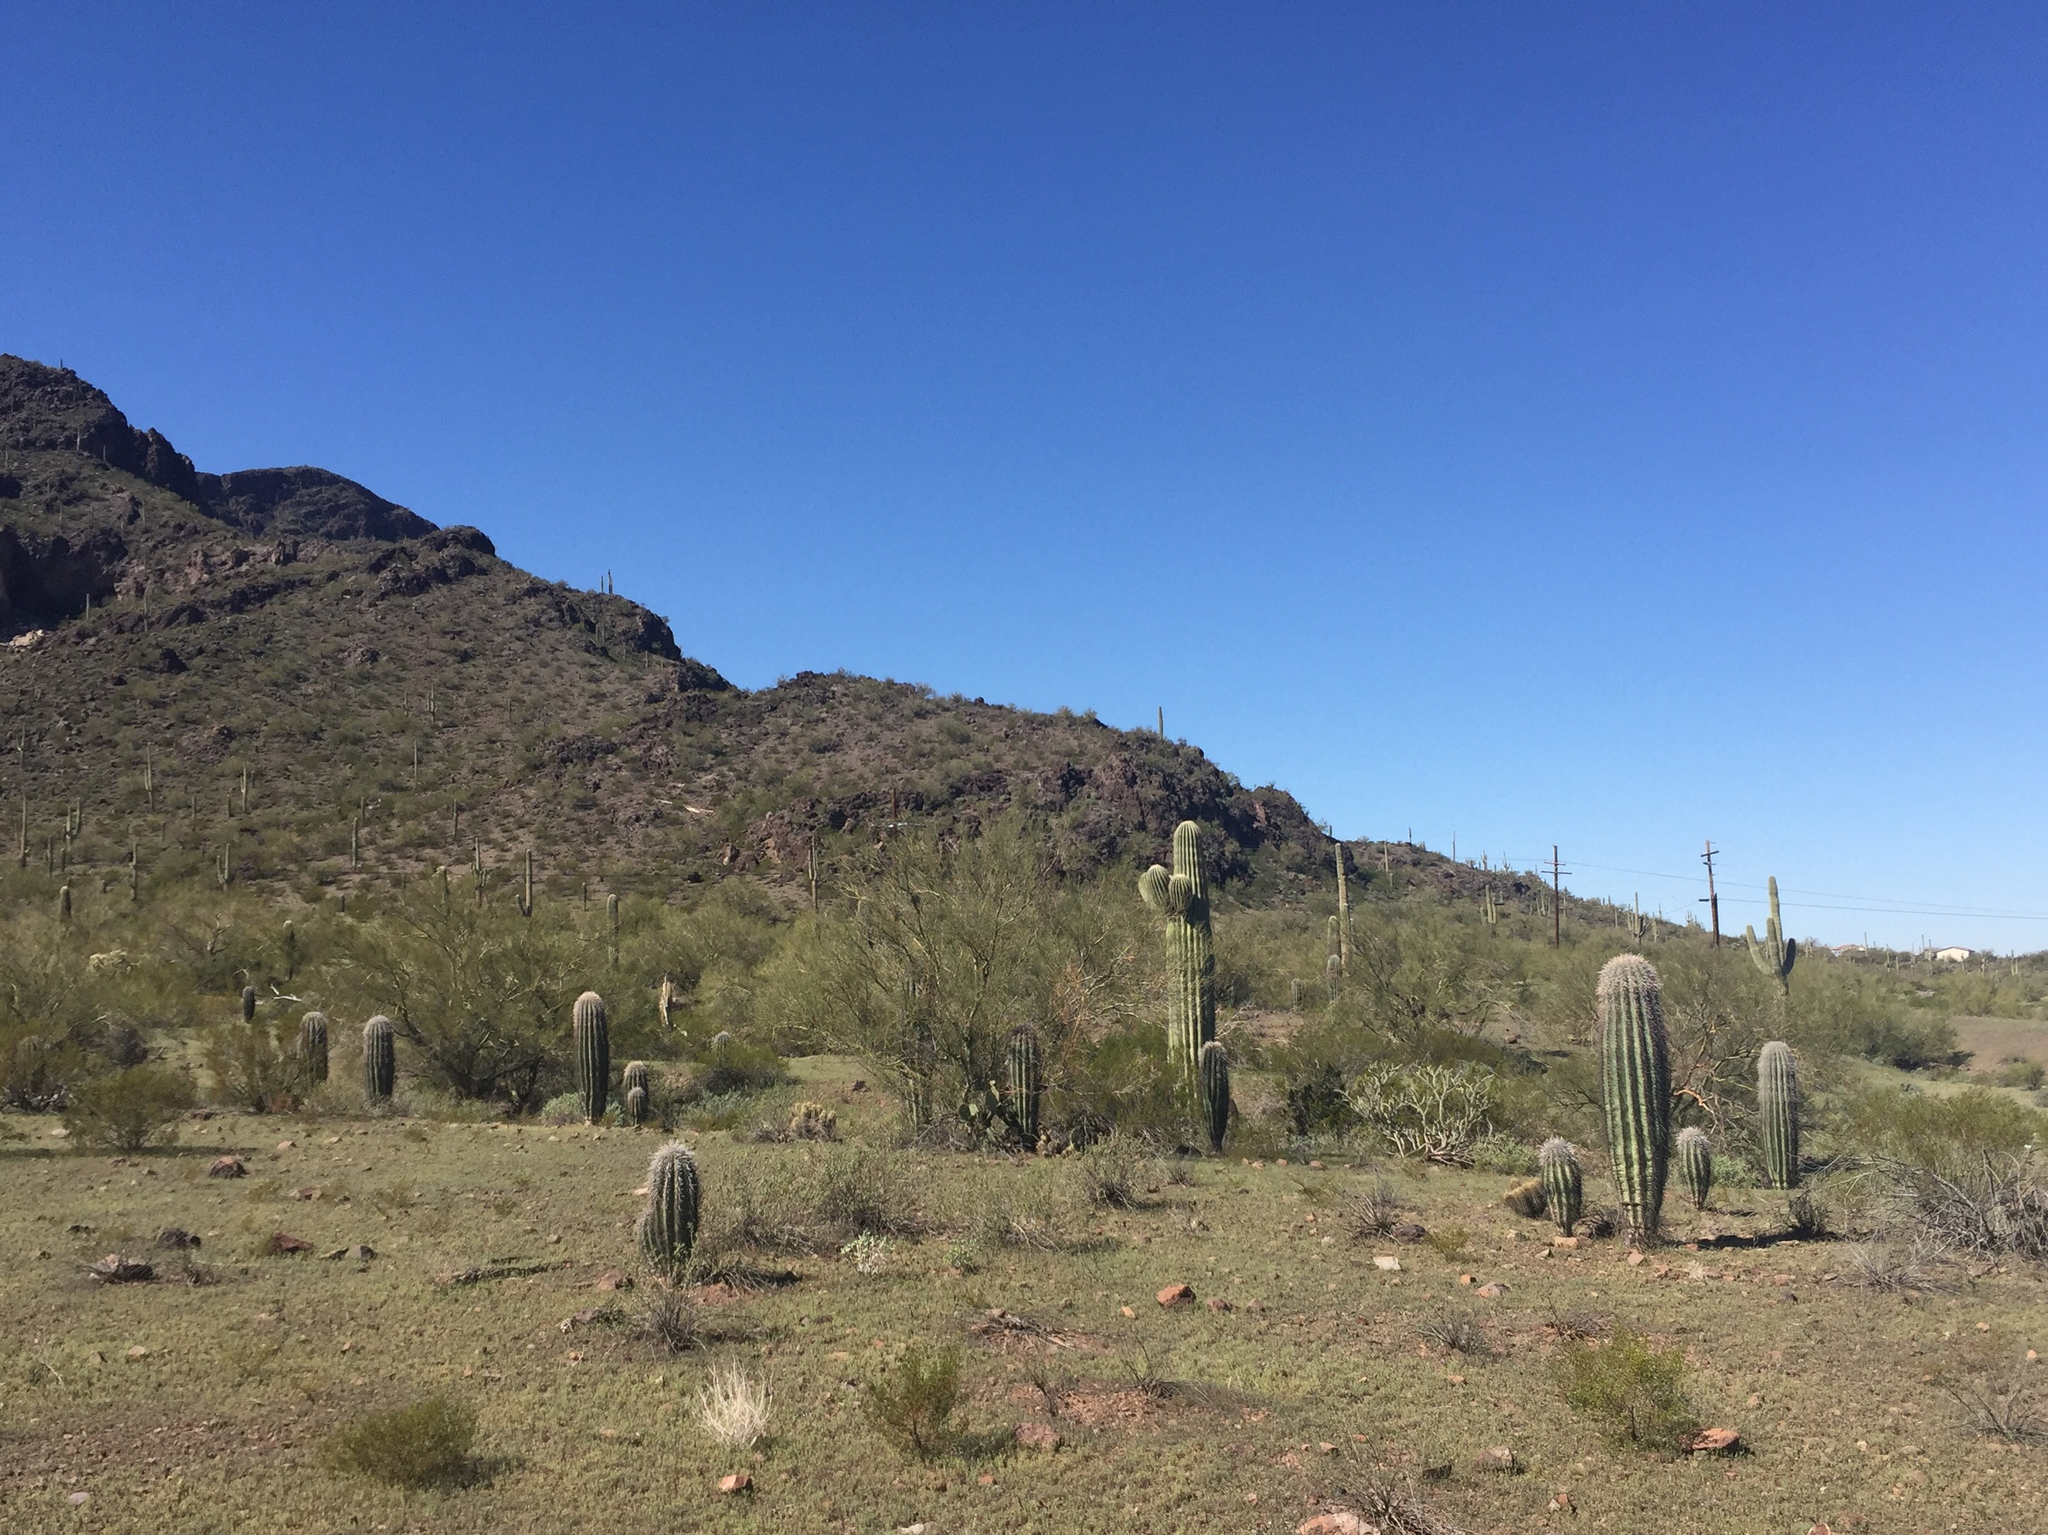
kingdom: Plantae
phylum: Tracheophyta
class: Magnoliopsida
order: Caryophyllales
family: Cactaceae
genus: Carnegiea
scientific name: Carnegiea gigantea
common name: Saguaro
